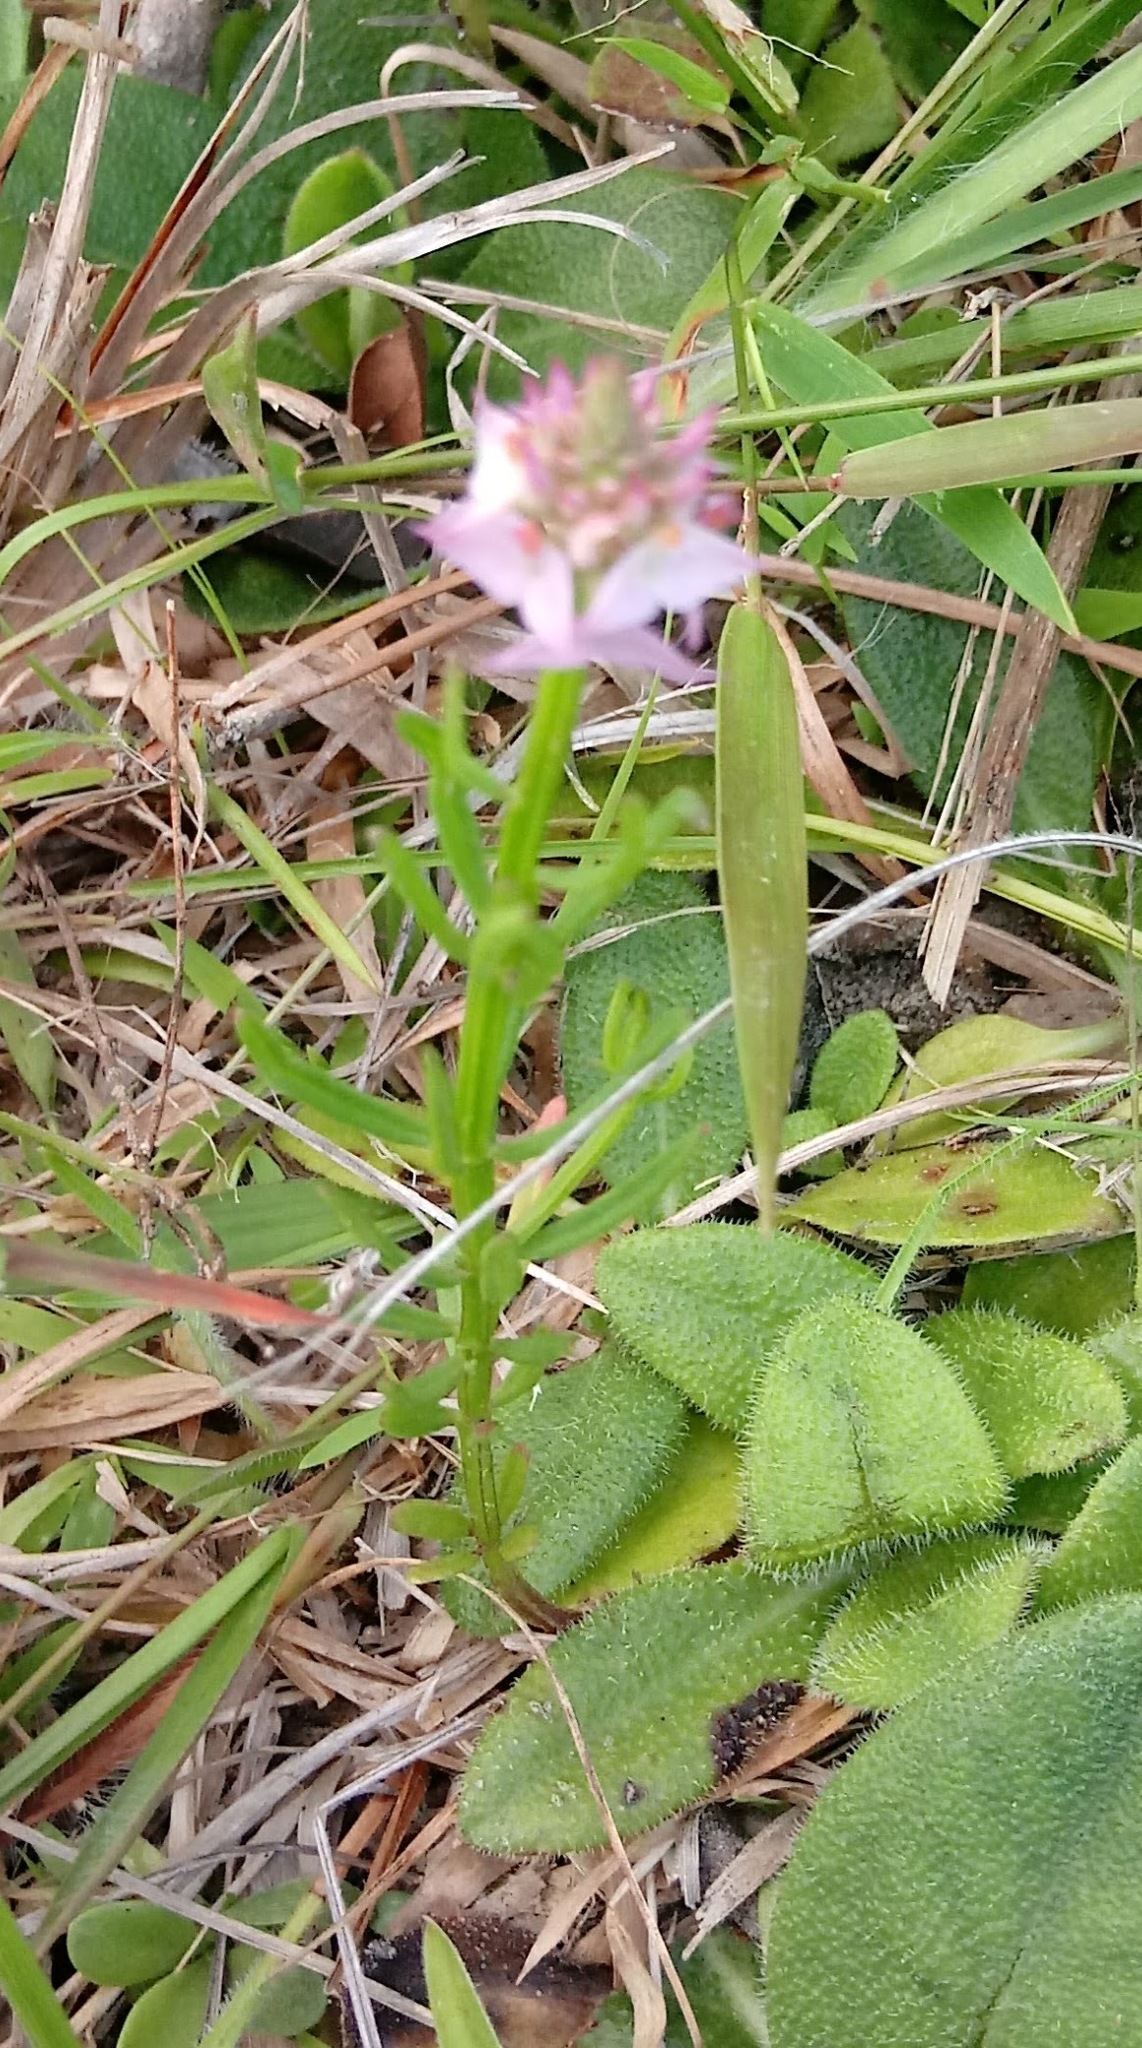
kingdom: Plantae
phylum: Tracheophyta
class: Magnoliopsida
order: Fabales
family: Polygalaceae
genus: Polygala
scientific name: Polygala cruciata
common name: Drumheads
